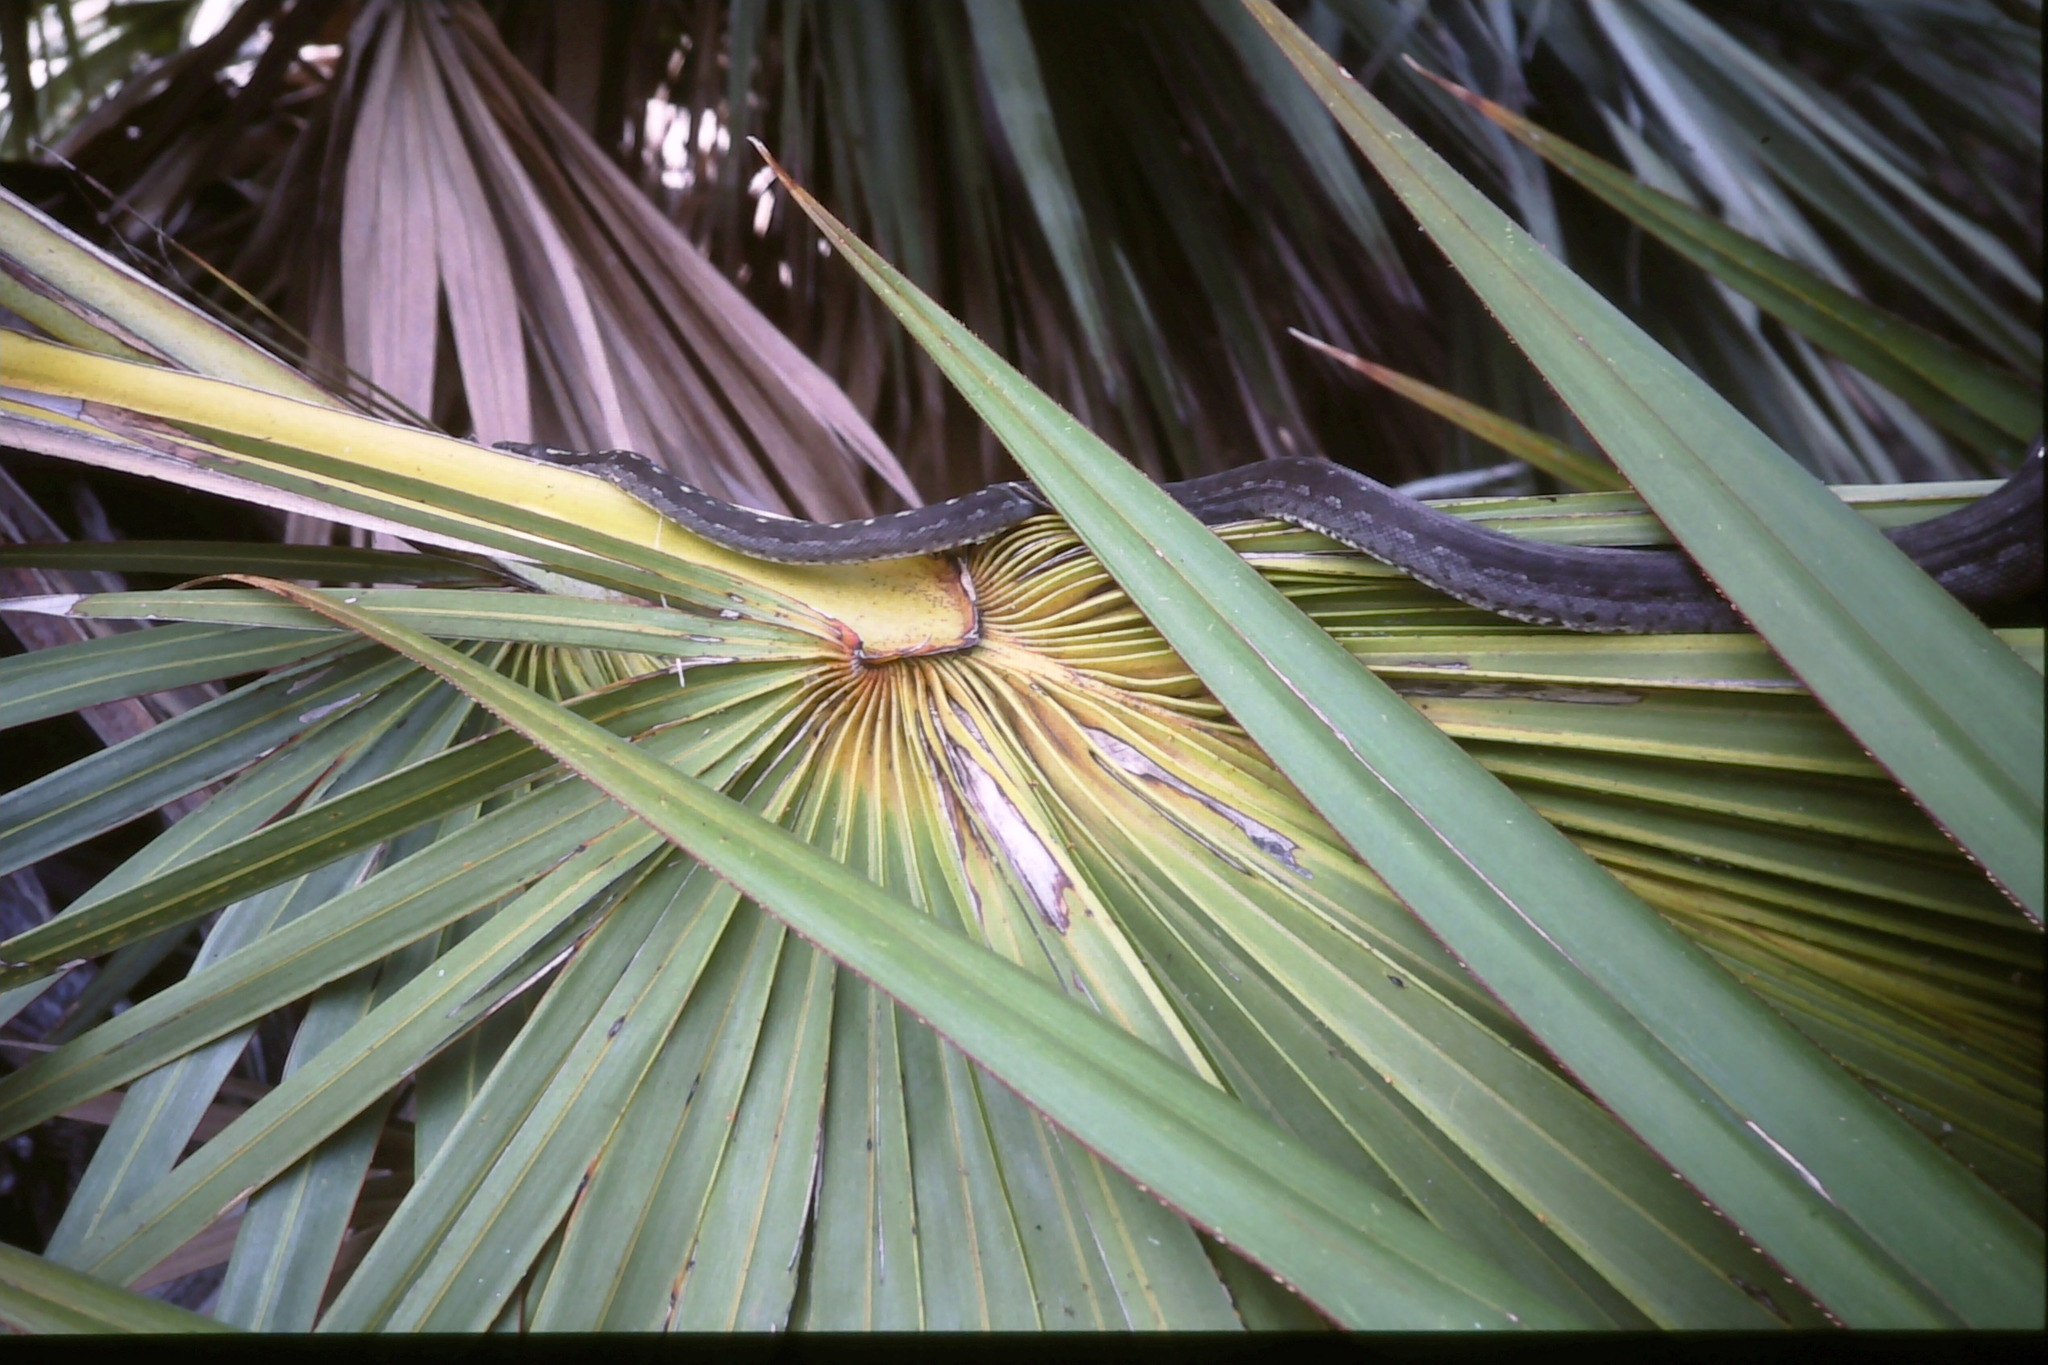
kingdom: Animalia
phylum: Chordata
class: Squamata
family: Bolyeriidae
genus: Casarea
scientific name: Casarea dussumieri
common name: Keel-scaled boa
